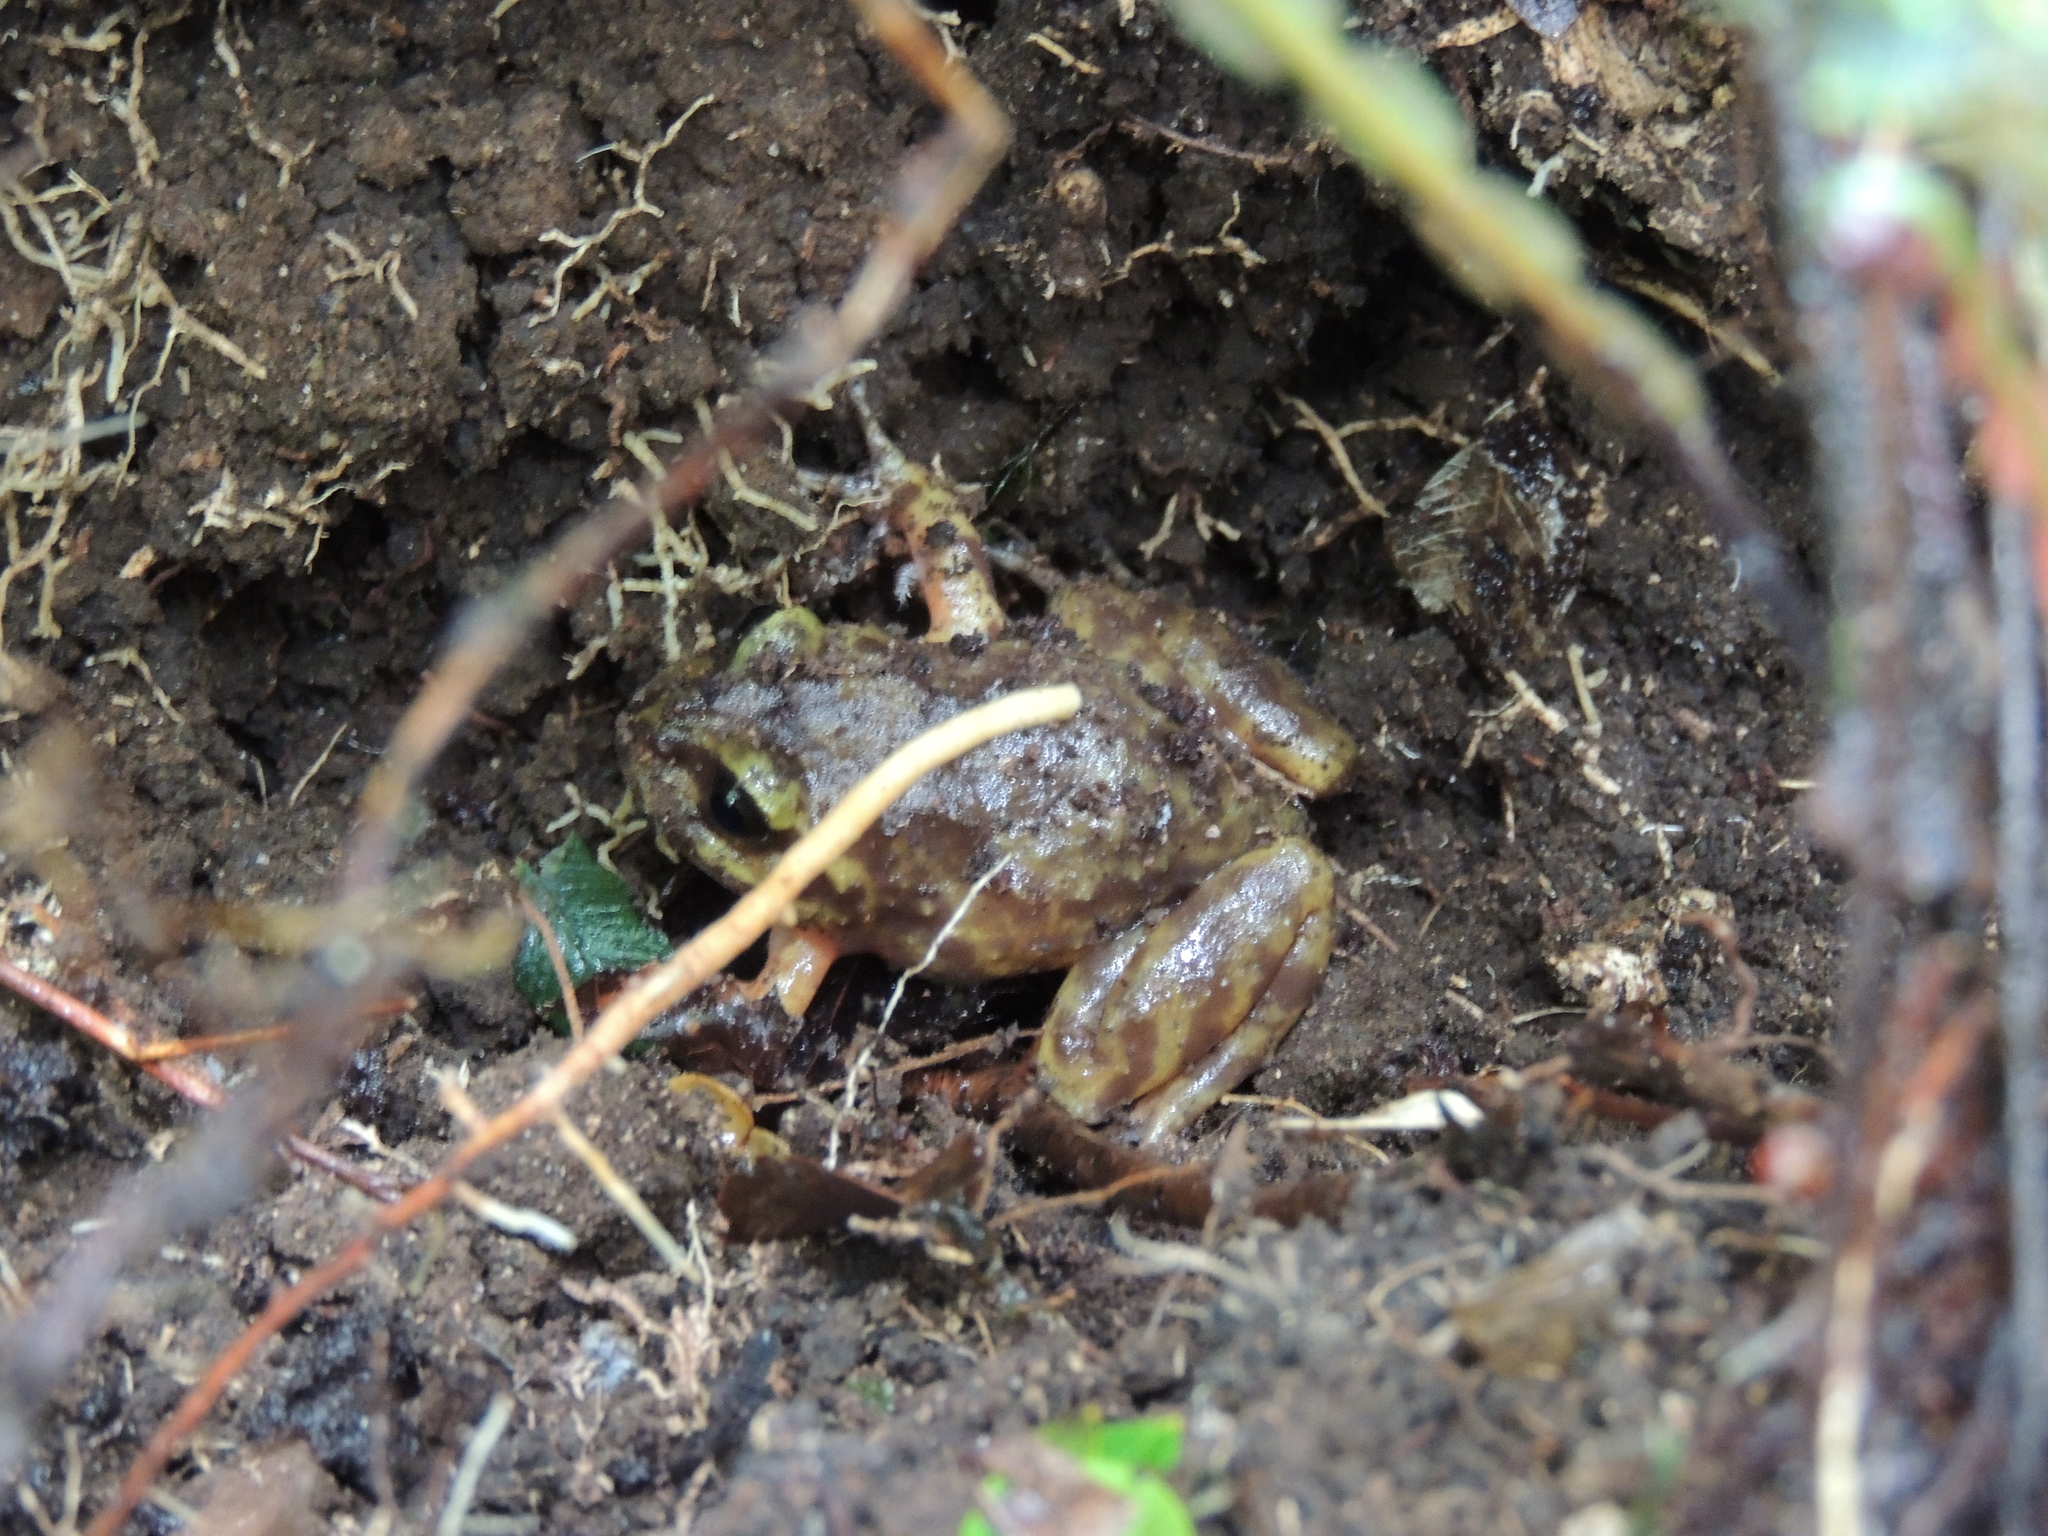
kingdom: Animalia
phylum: Chordata
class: Amphibia
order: Anura
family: Alsodidae
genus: Eupsophus
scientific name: Eupsophus emiliopugini
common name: Emilio's ground frog
